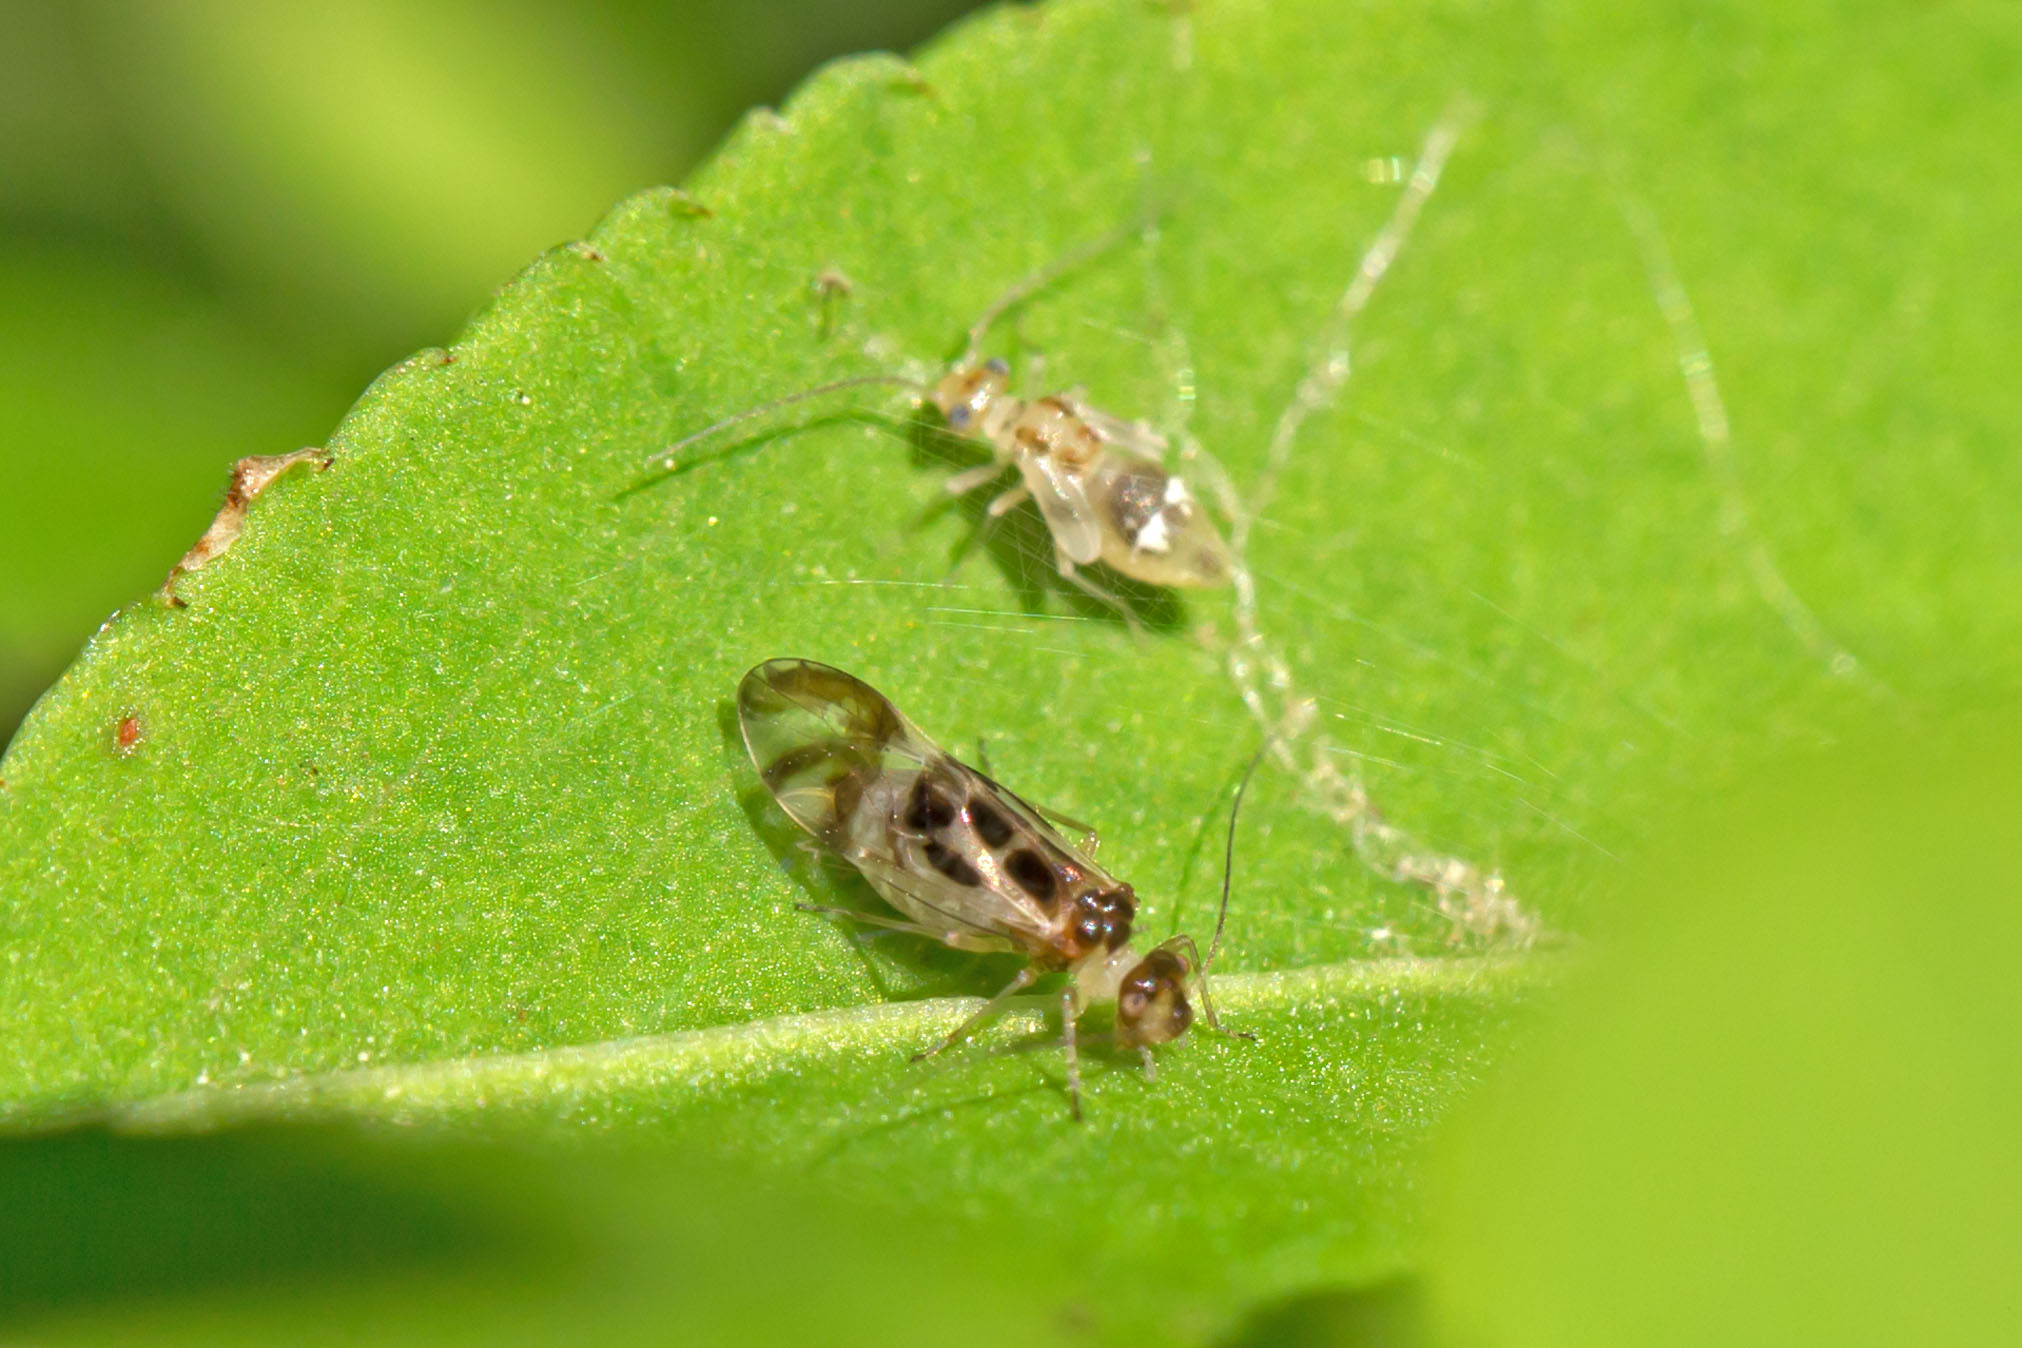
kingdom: Animalia
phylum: Arthropoda
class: Insecta
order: Psocodea
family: Stenopsocidae
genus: Graphopsocus
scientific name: Graphopsocus cruciatus
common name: Lizard bark louse
